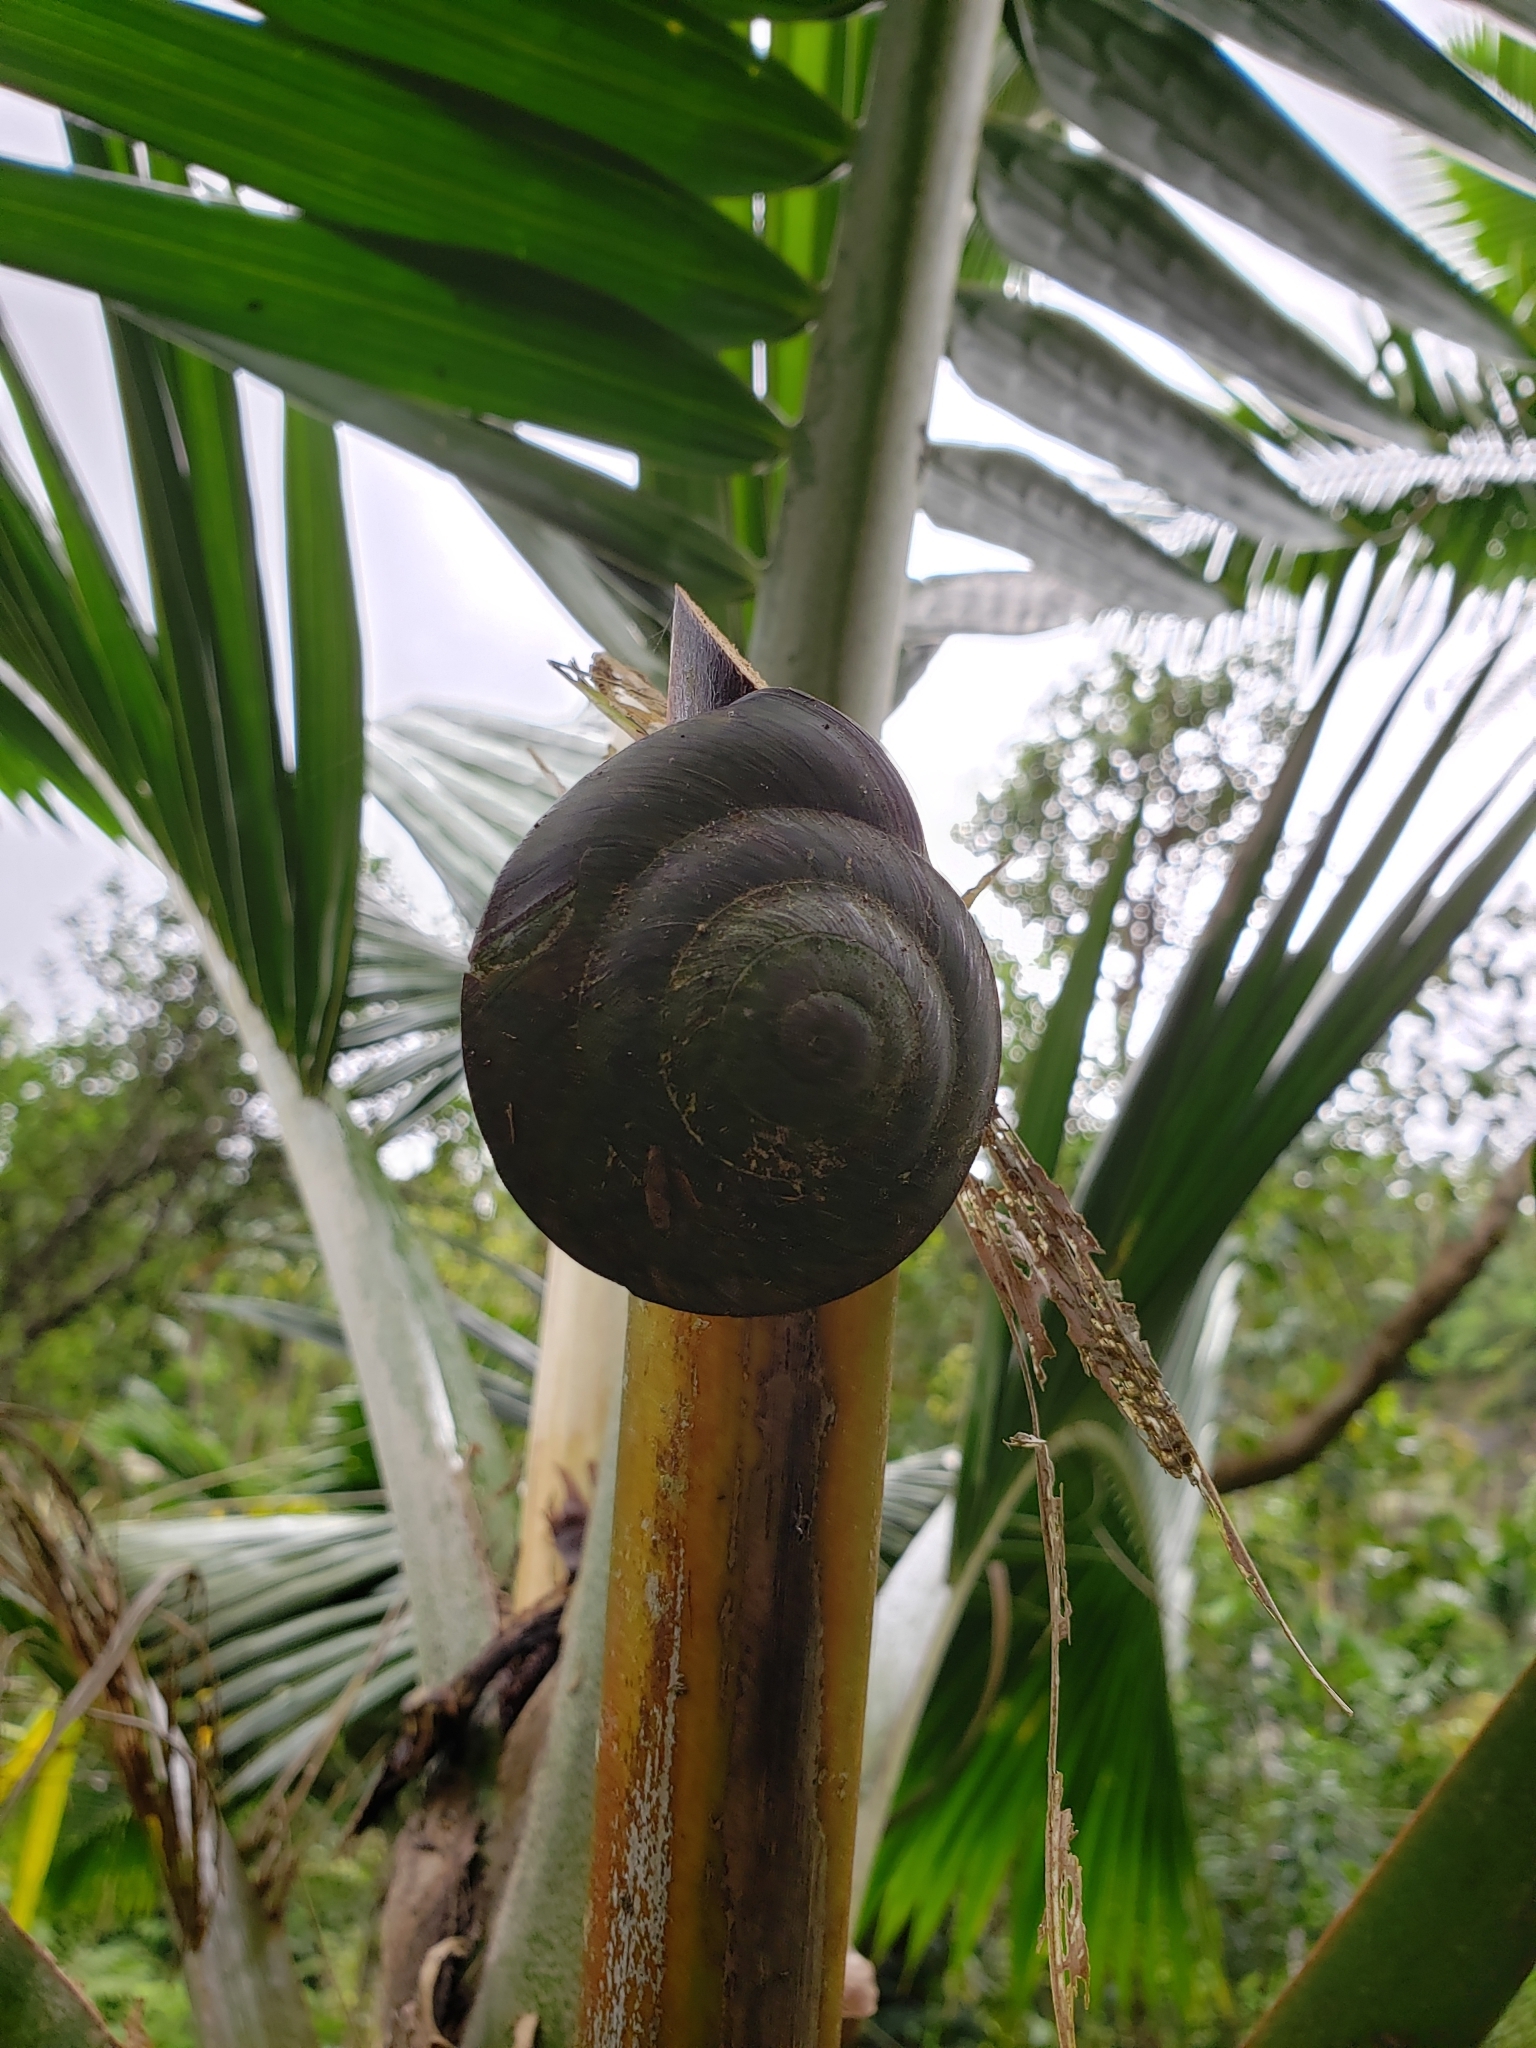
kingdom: Animalia
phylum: Mollusca
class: Gastropoda
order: Stylommatophora
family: Solaropsidae
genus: Caracolus
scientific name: Caracolus carocolla
